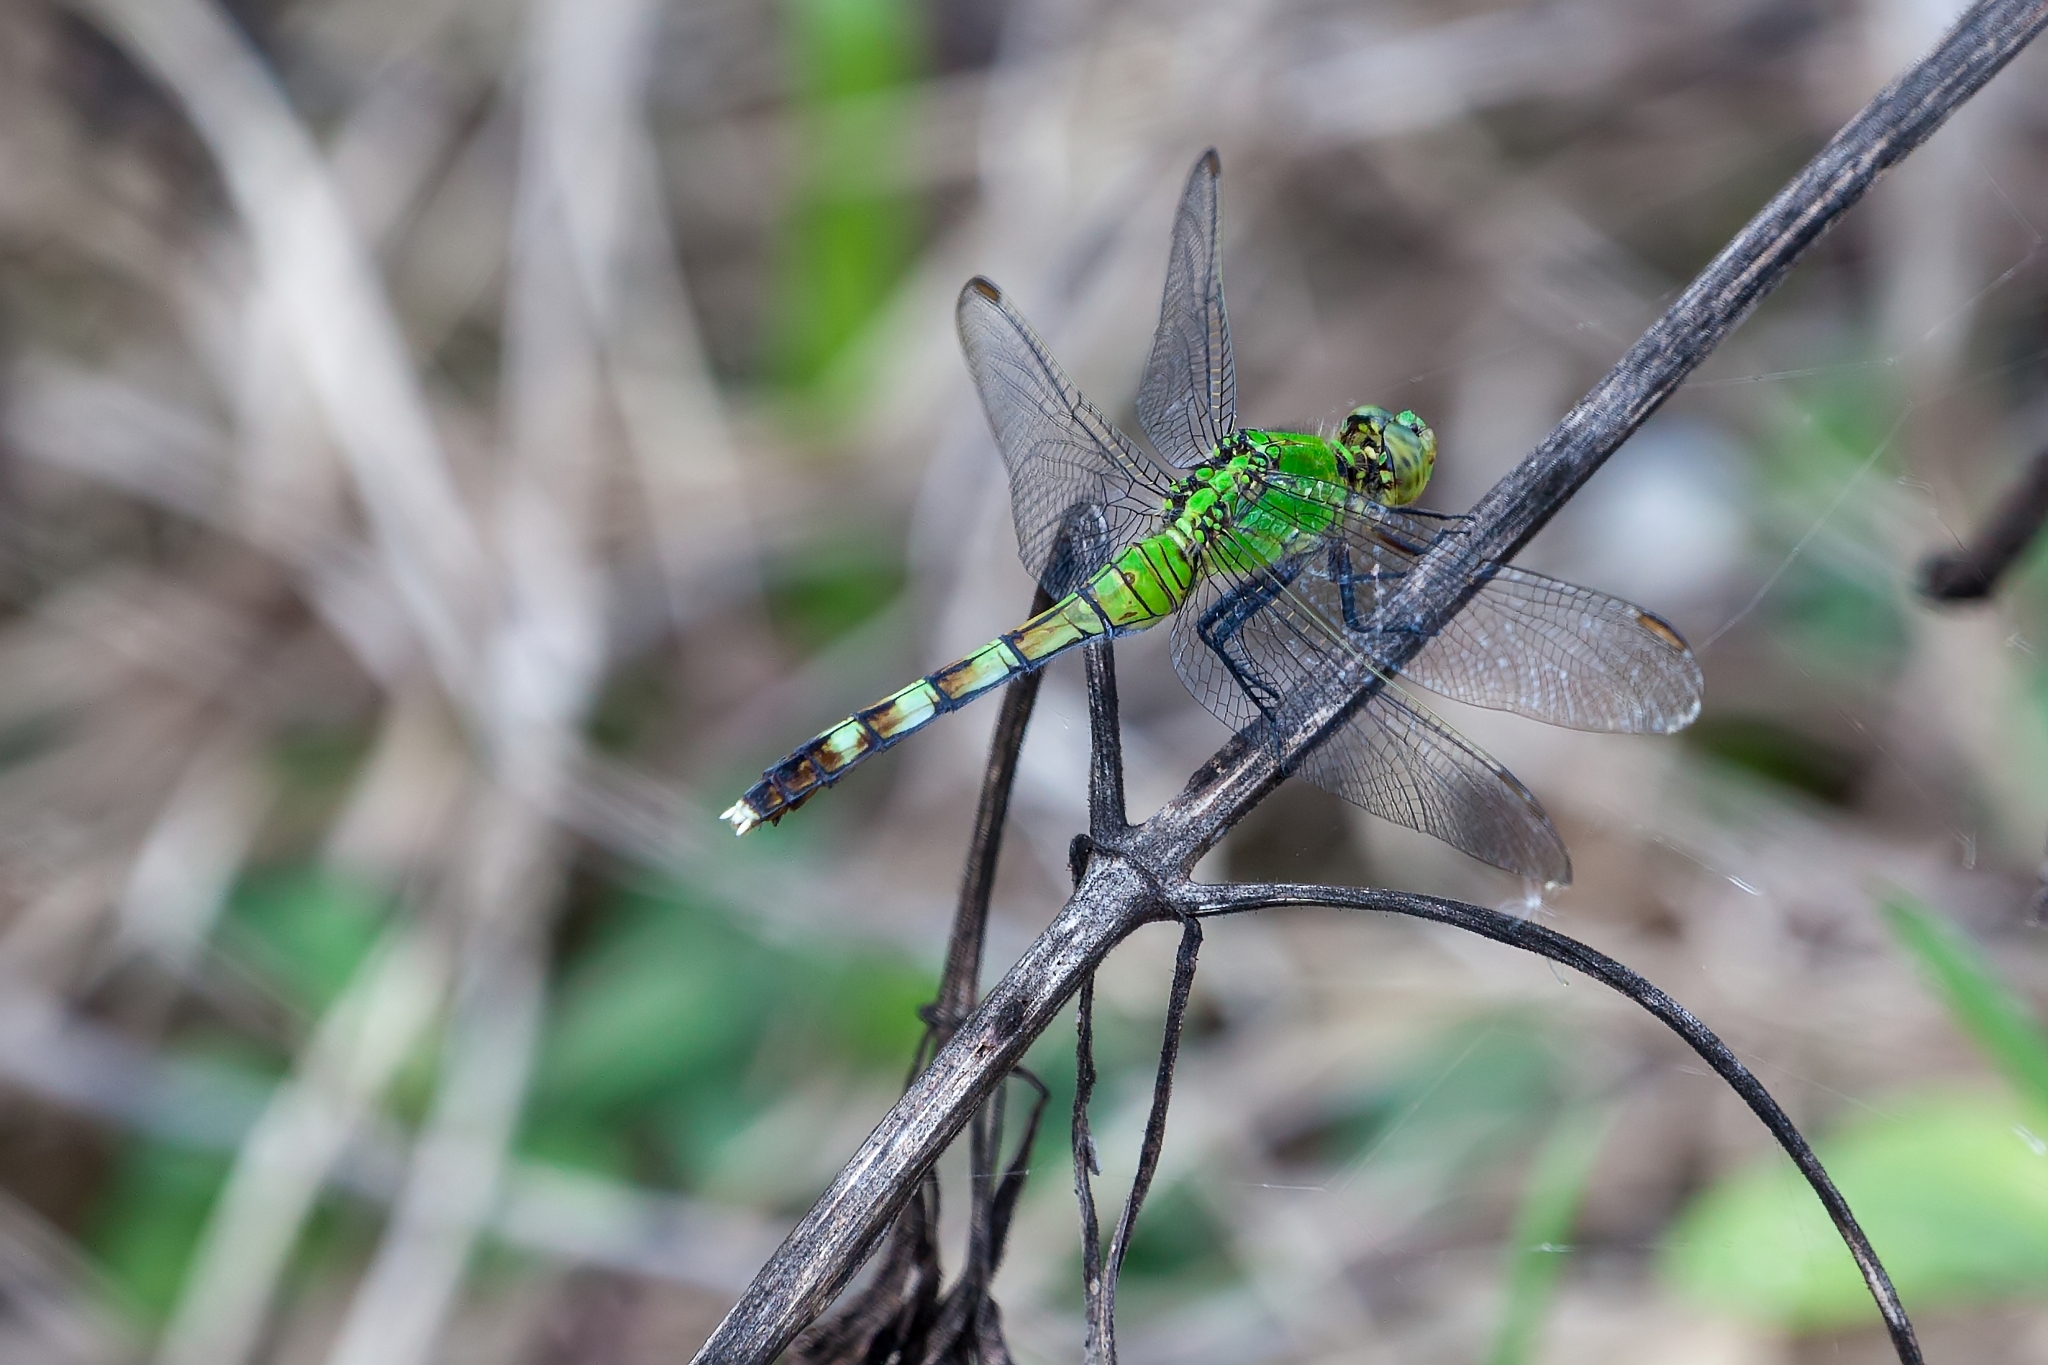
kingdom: Animalia
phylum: Arthropoda
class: Insecta
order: Odonata
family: Libellulidae
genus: Erythemis
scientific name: Erythemis simplicicollis
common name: Eastern pondhawk
